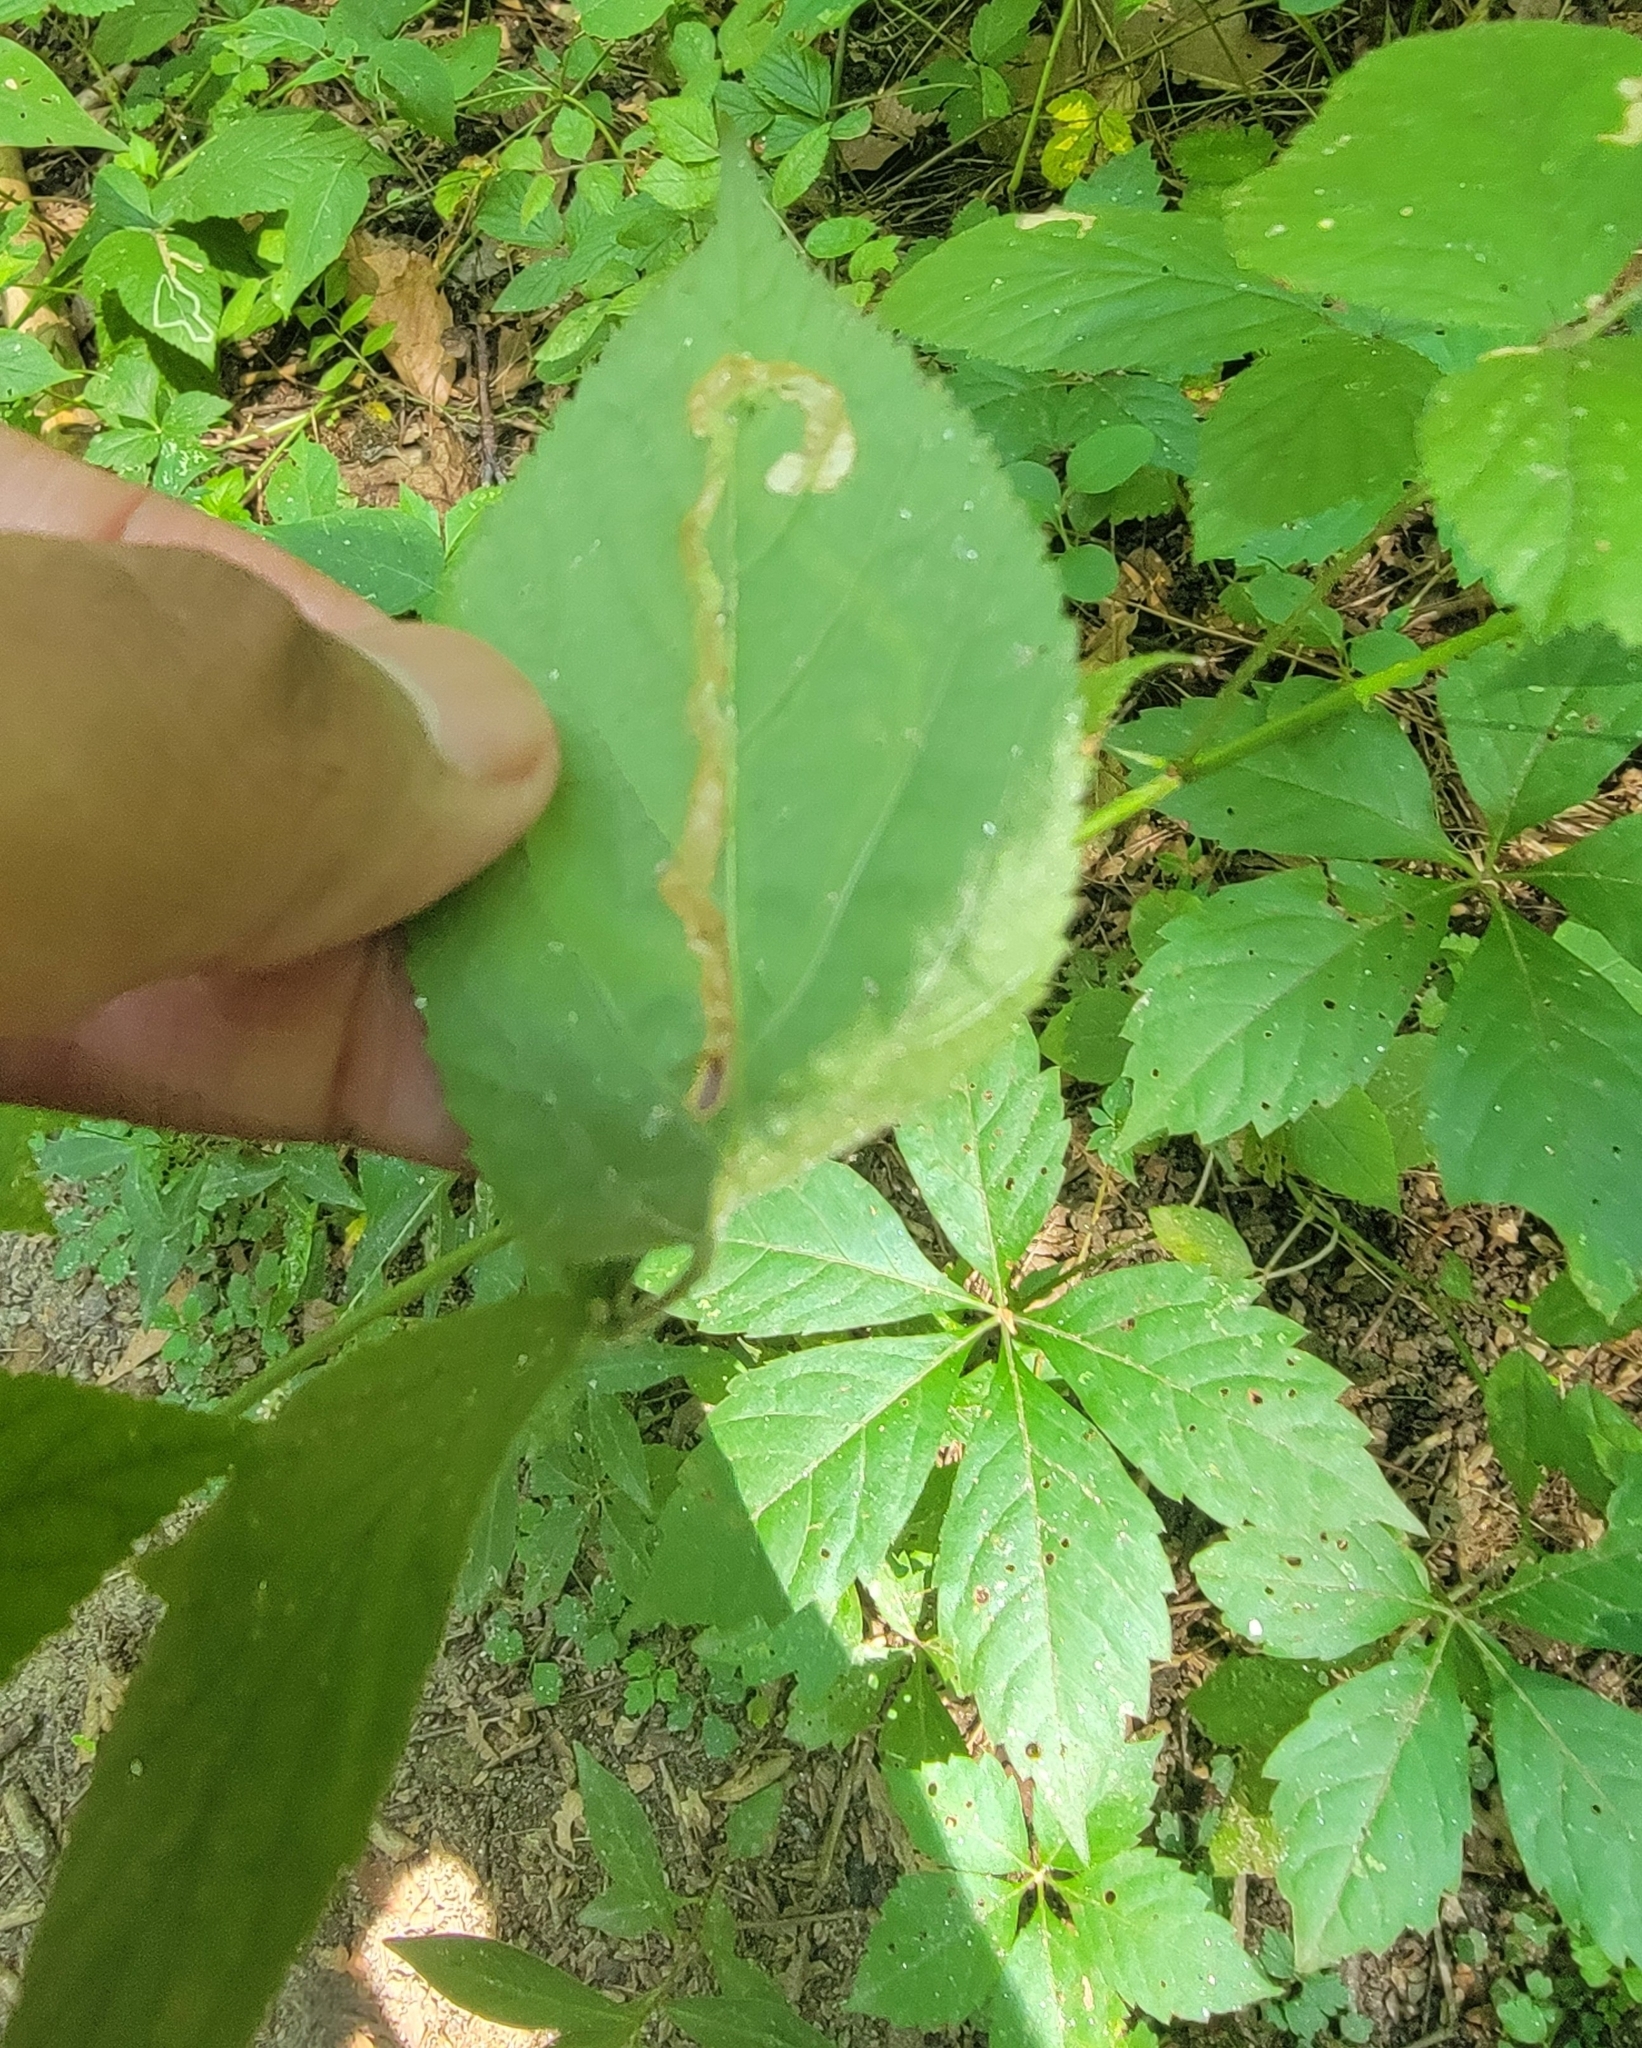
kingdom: Animalia
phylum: Arthropoda
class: Insecta
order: Diptera
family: Agromyzidae
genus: Agromyza
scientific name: Agromyza vockerothi
